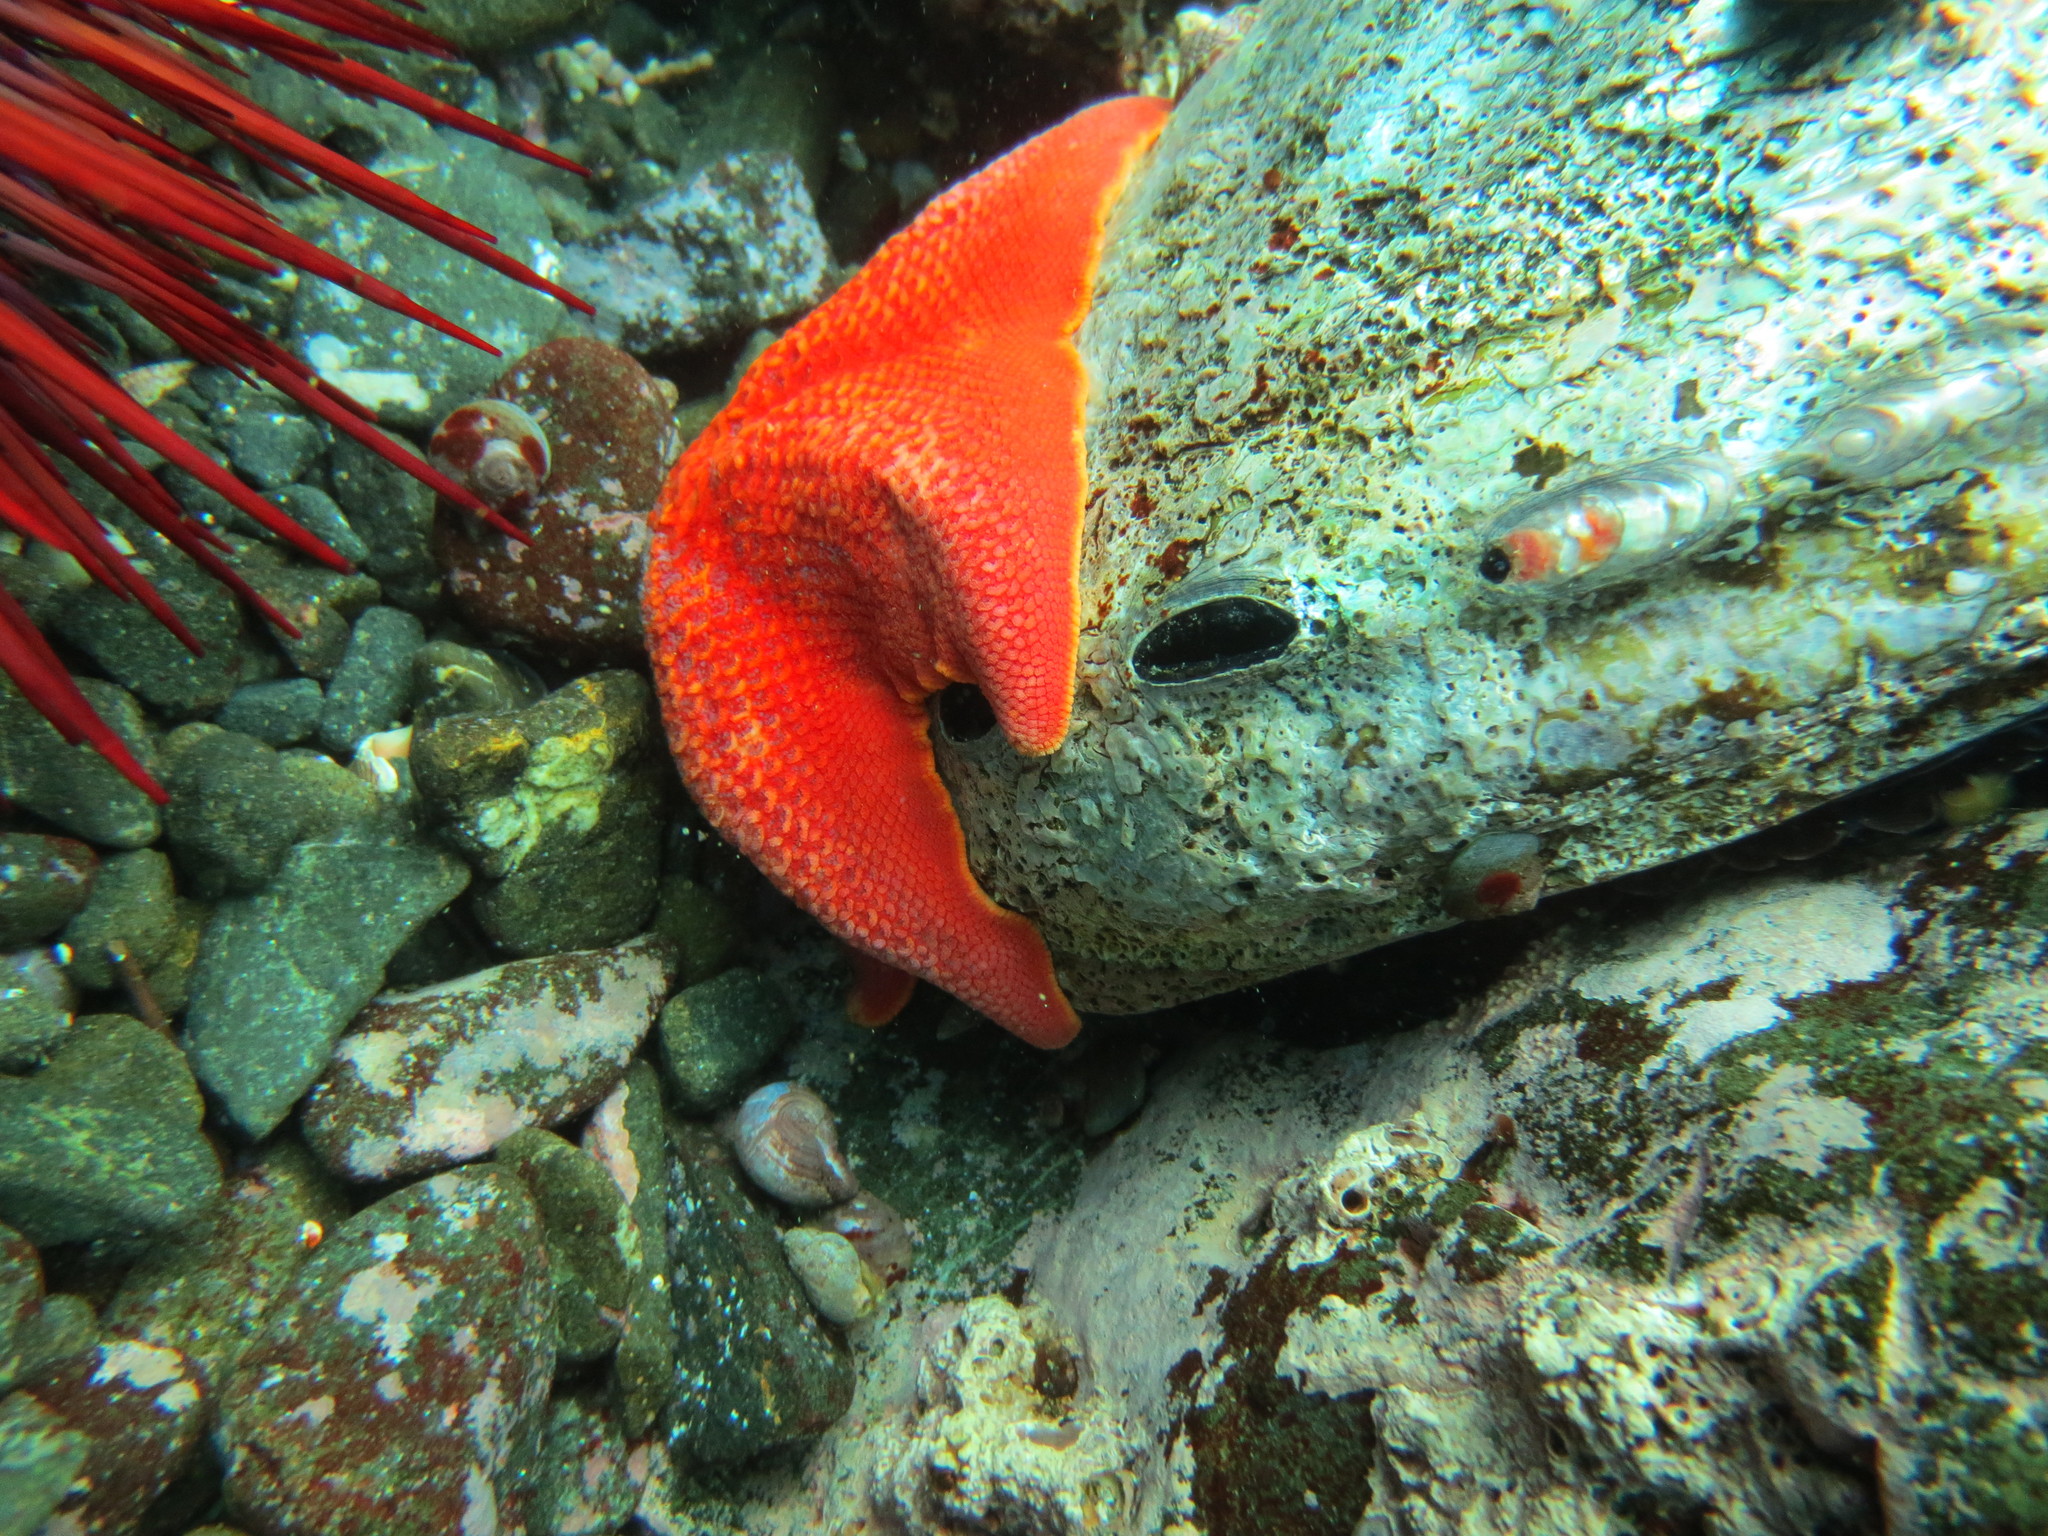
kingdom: Animalia
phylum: Echinodermata
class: Asteroidea
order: Valvatida
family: Asterinidae
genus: Patiria
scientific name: Patiria miniata
